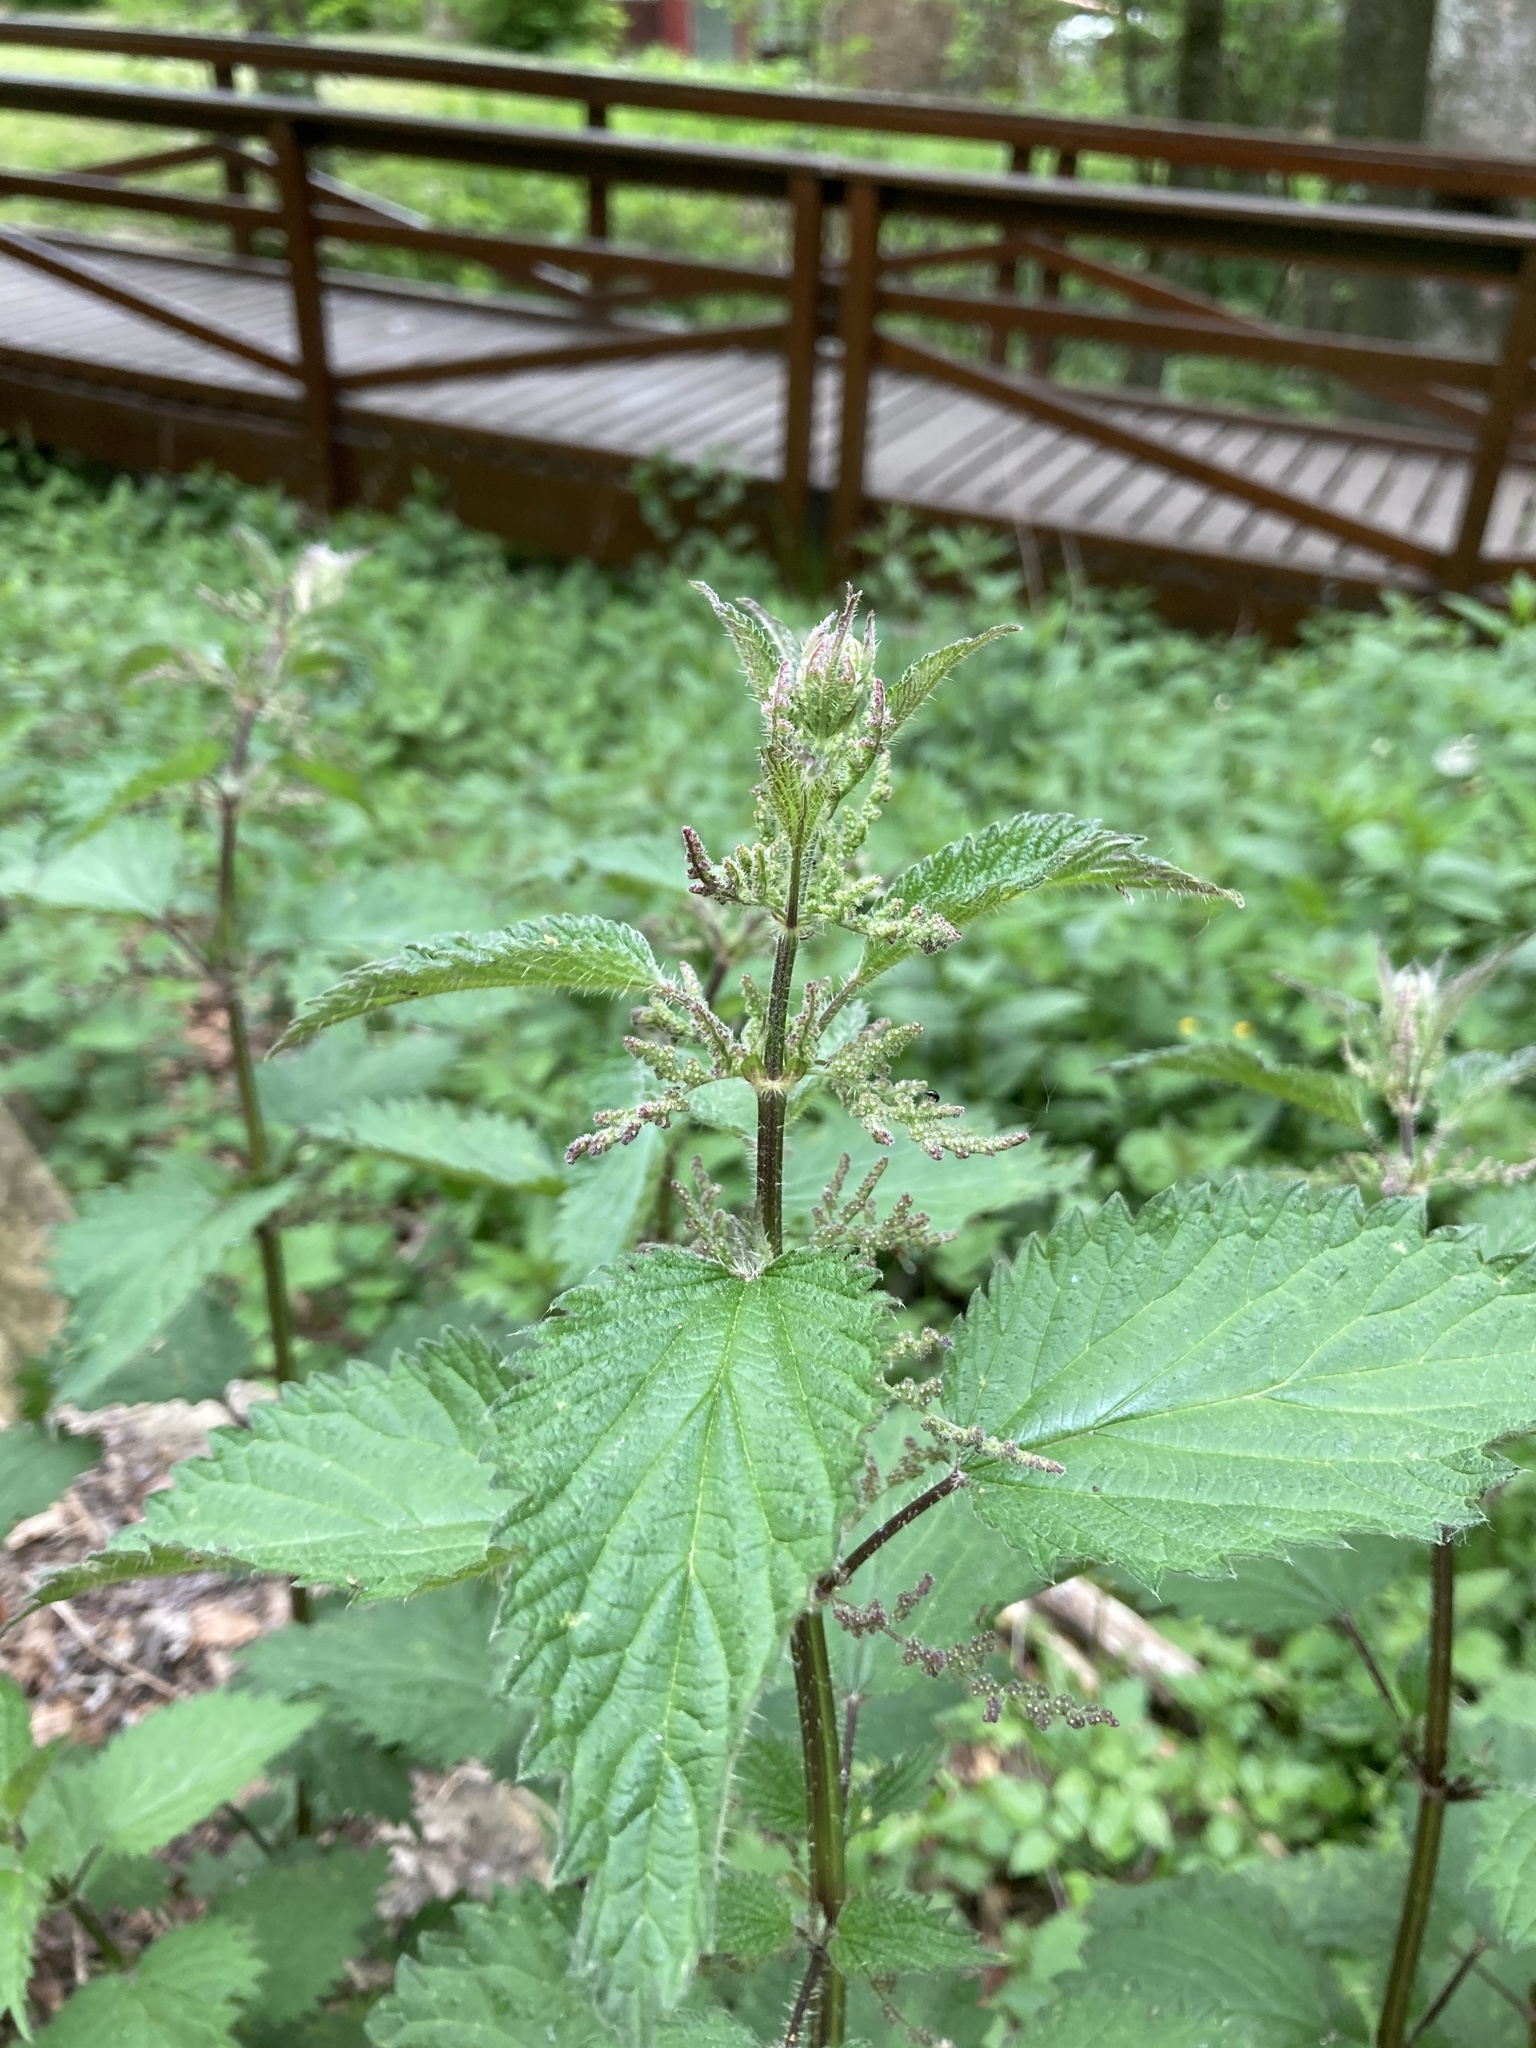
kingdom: Plantae
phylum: Tracheophyta
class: Magnoliopsida
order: Rosales
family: Urticaceae
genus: Urtica
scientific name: Urtica dioica
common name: Common nettle
